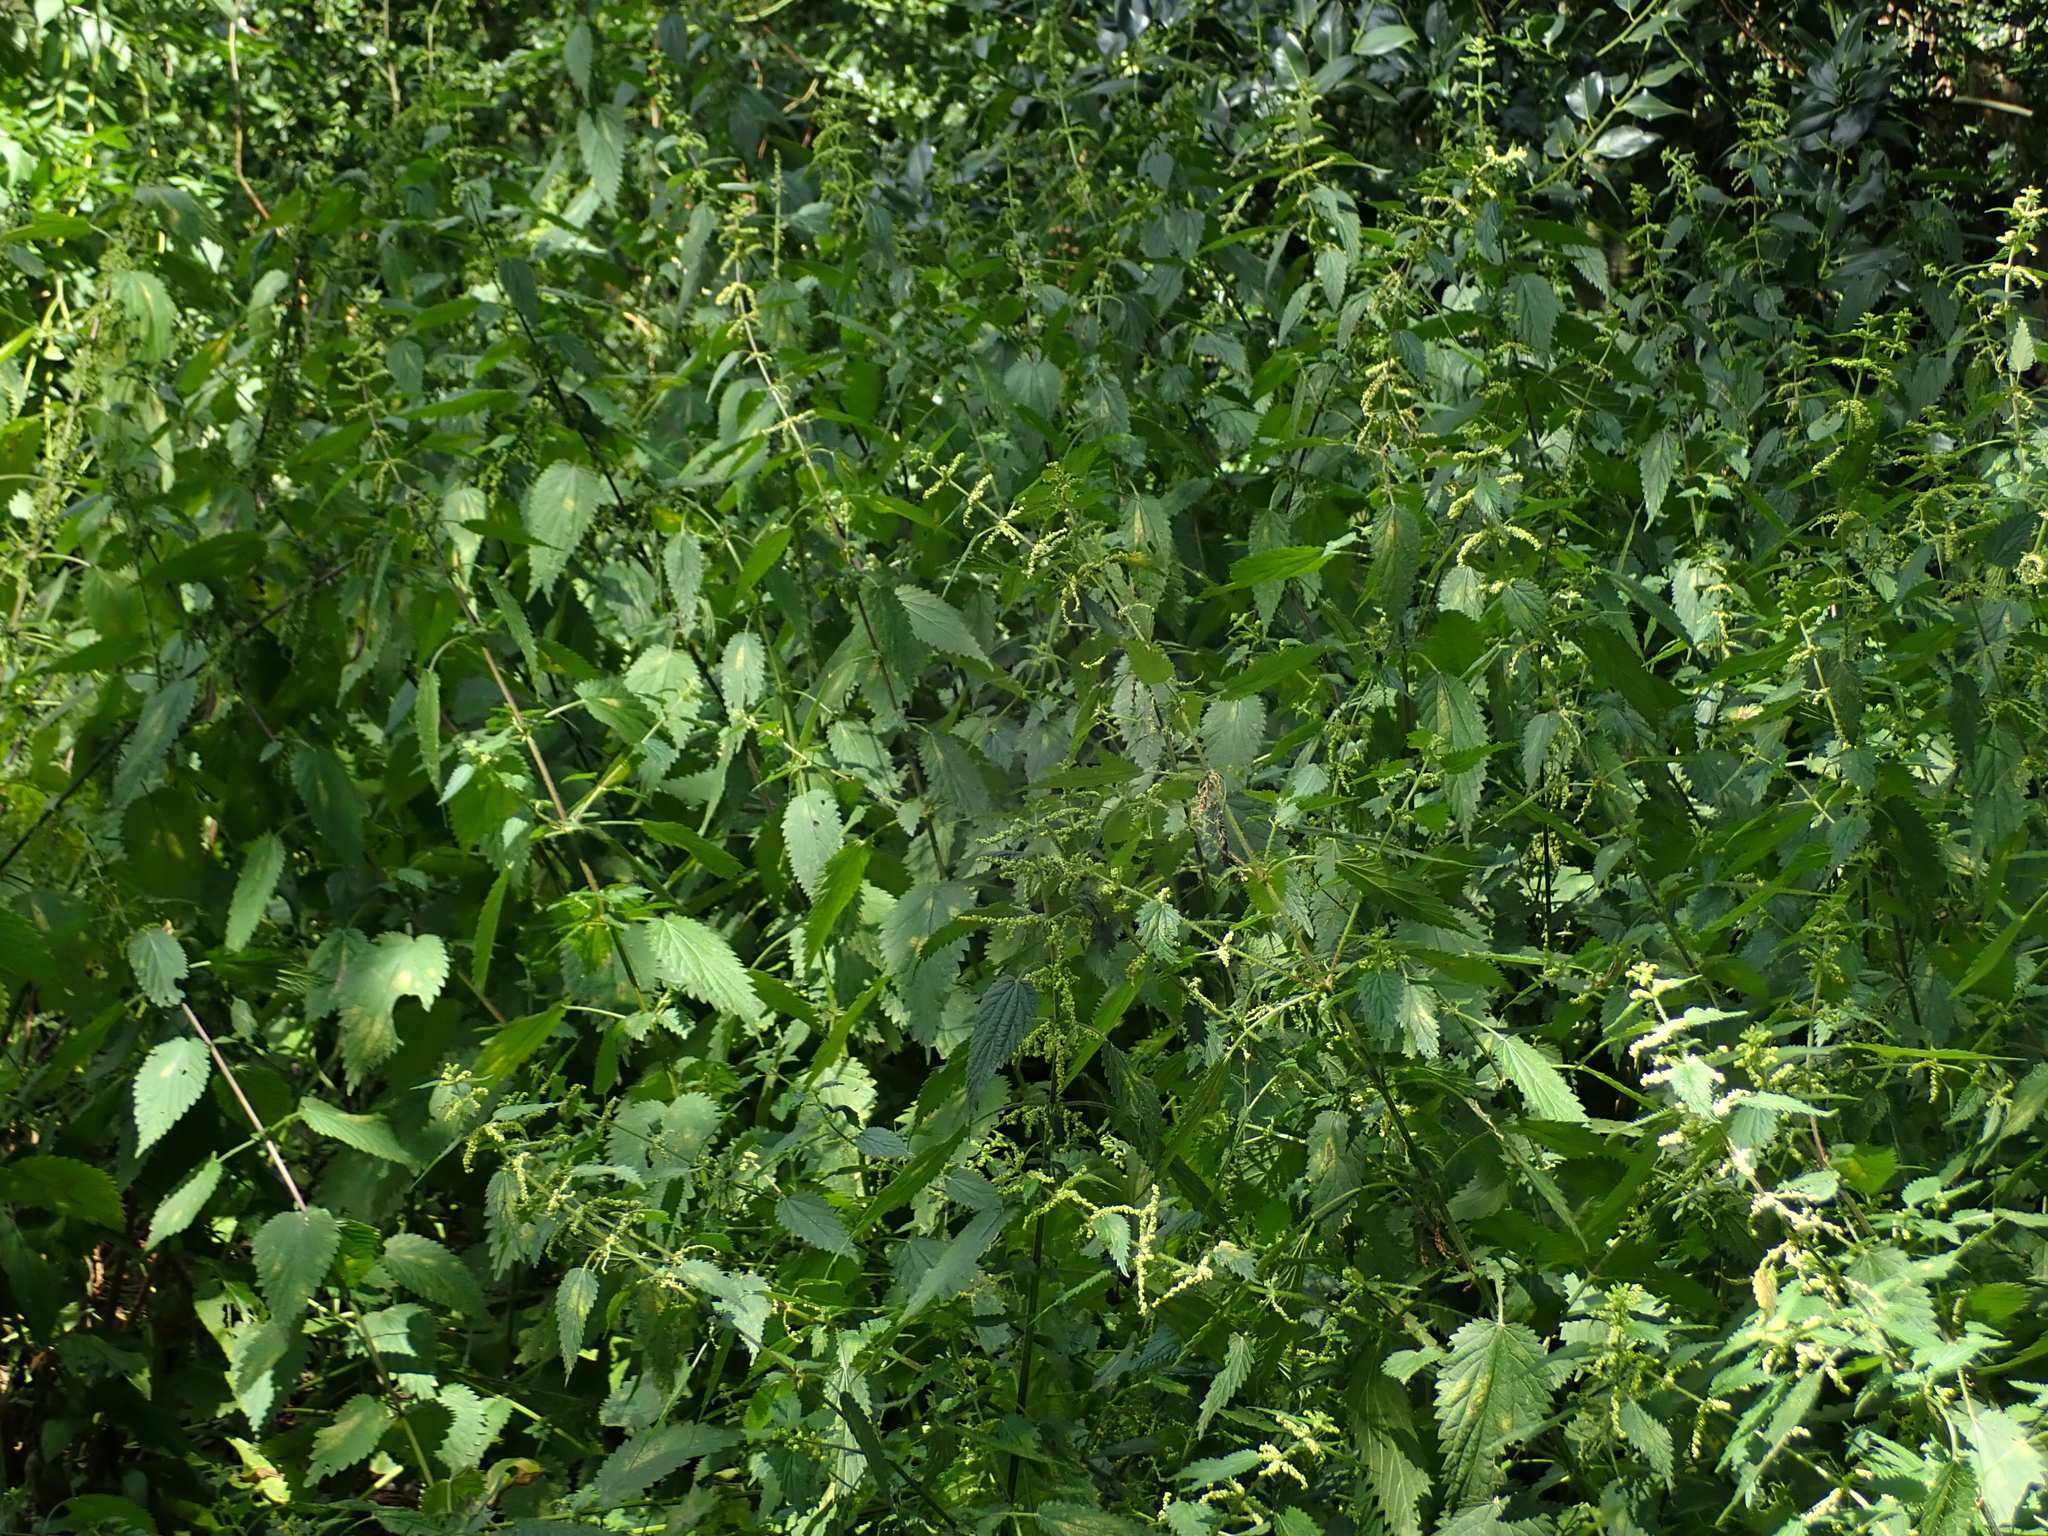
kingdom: Plantae
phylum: Tracheophyta
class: Magnoliopsida
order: Rosales
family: Urticaceae
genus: Urtica
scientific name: Urtica dioica
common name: Common nettle
